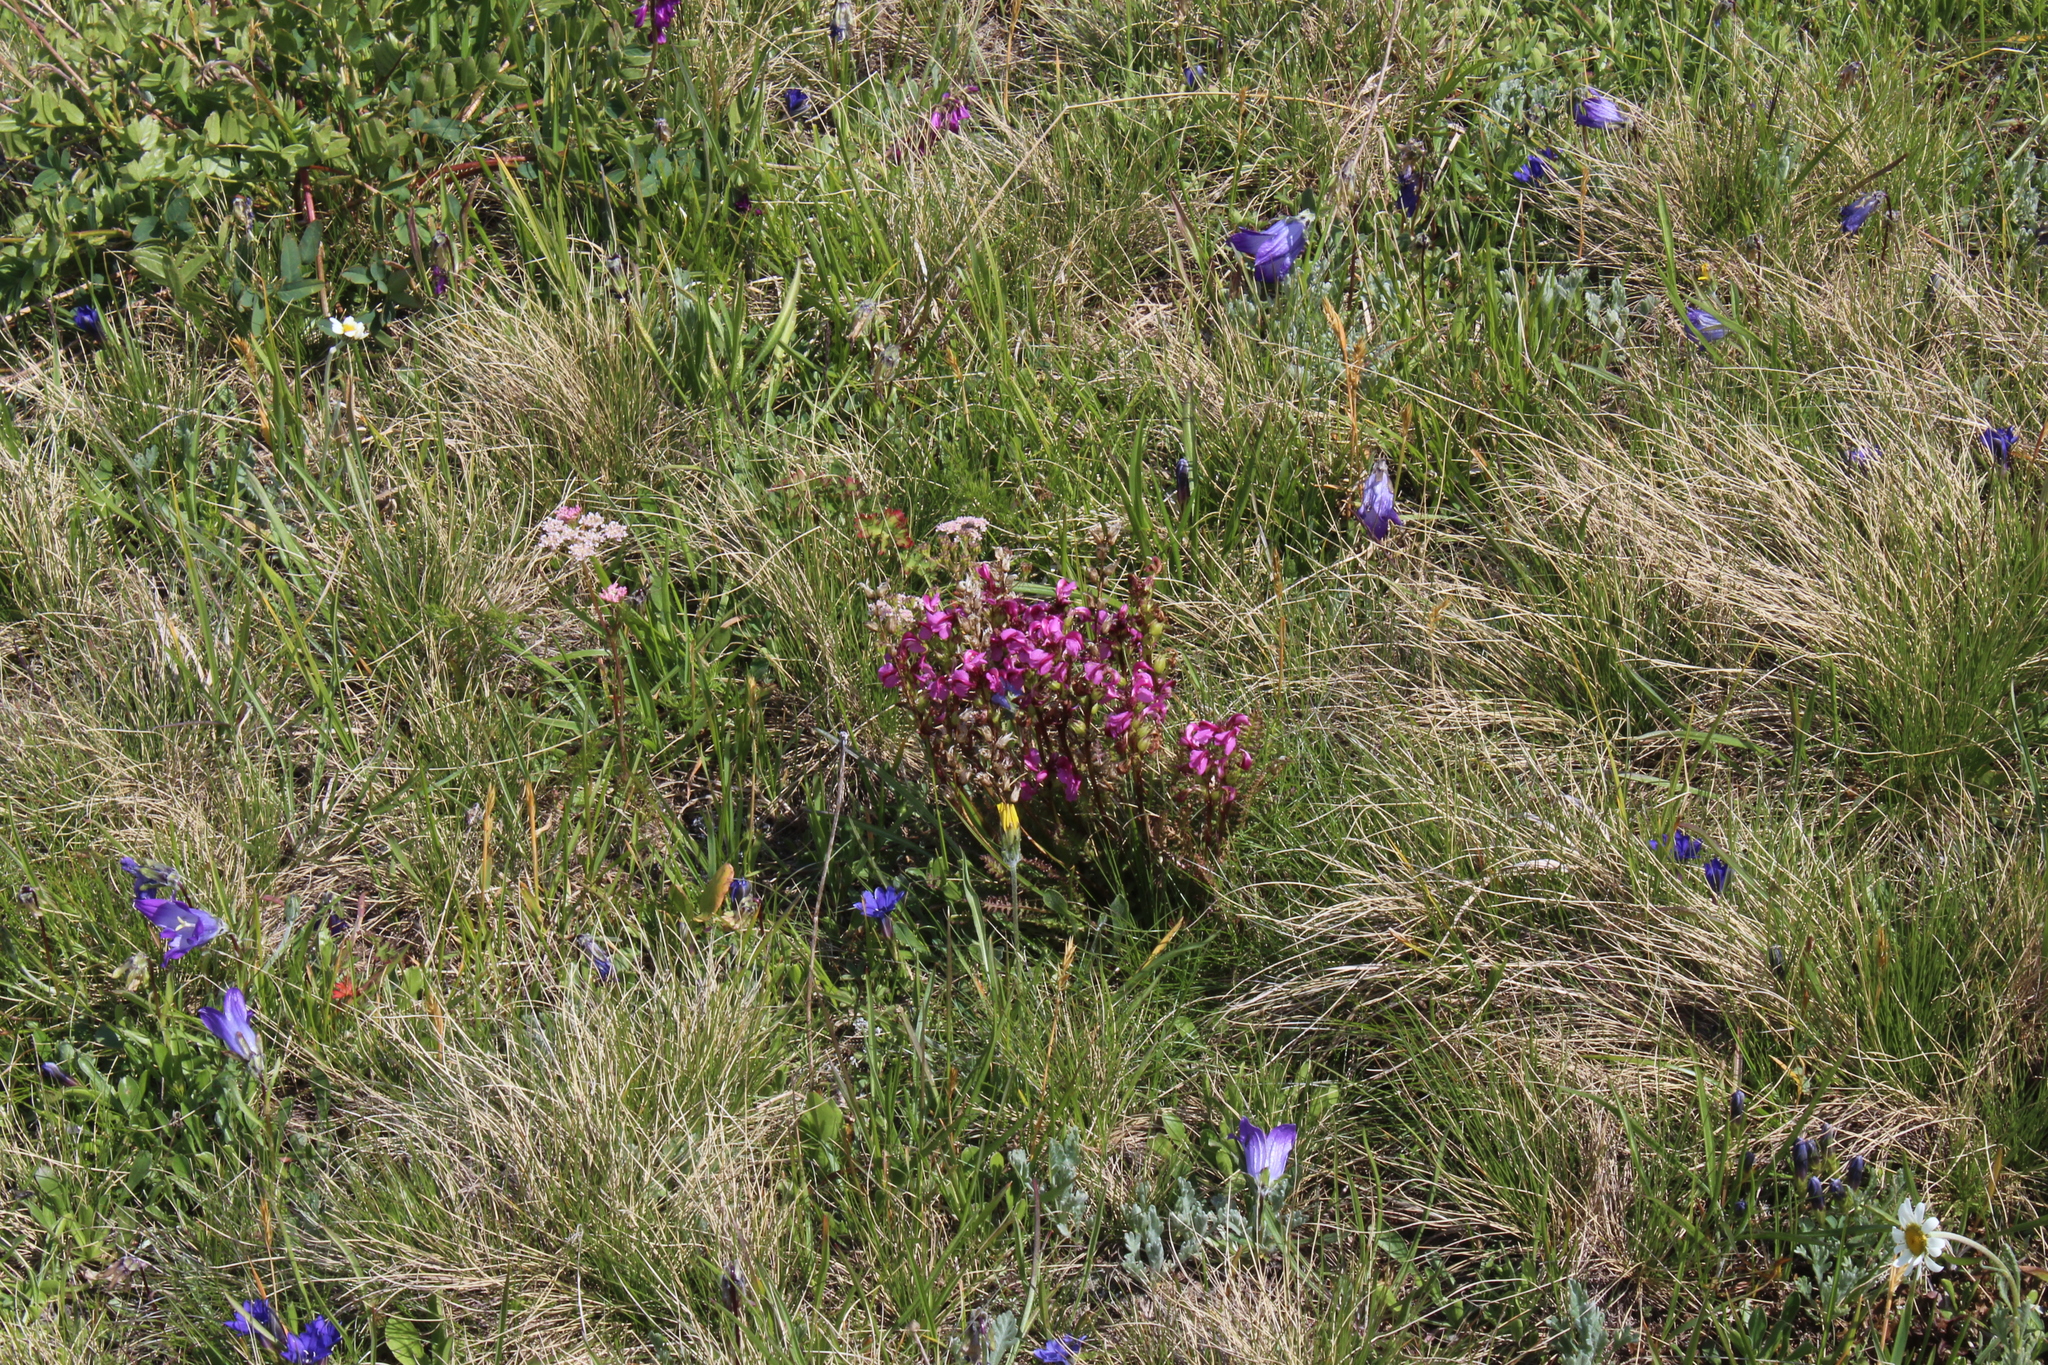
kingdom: Plantae
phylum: Tracheophyta
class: Magnoliopsida
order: Lamiales
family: Orobanchaceae
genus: Pedicularis
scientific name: Pedicularis nordmanniana
